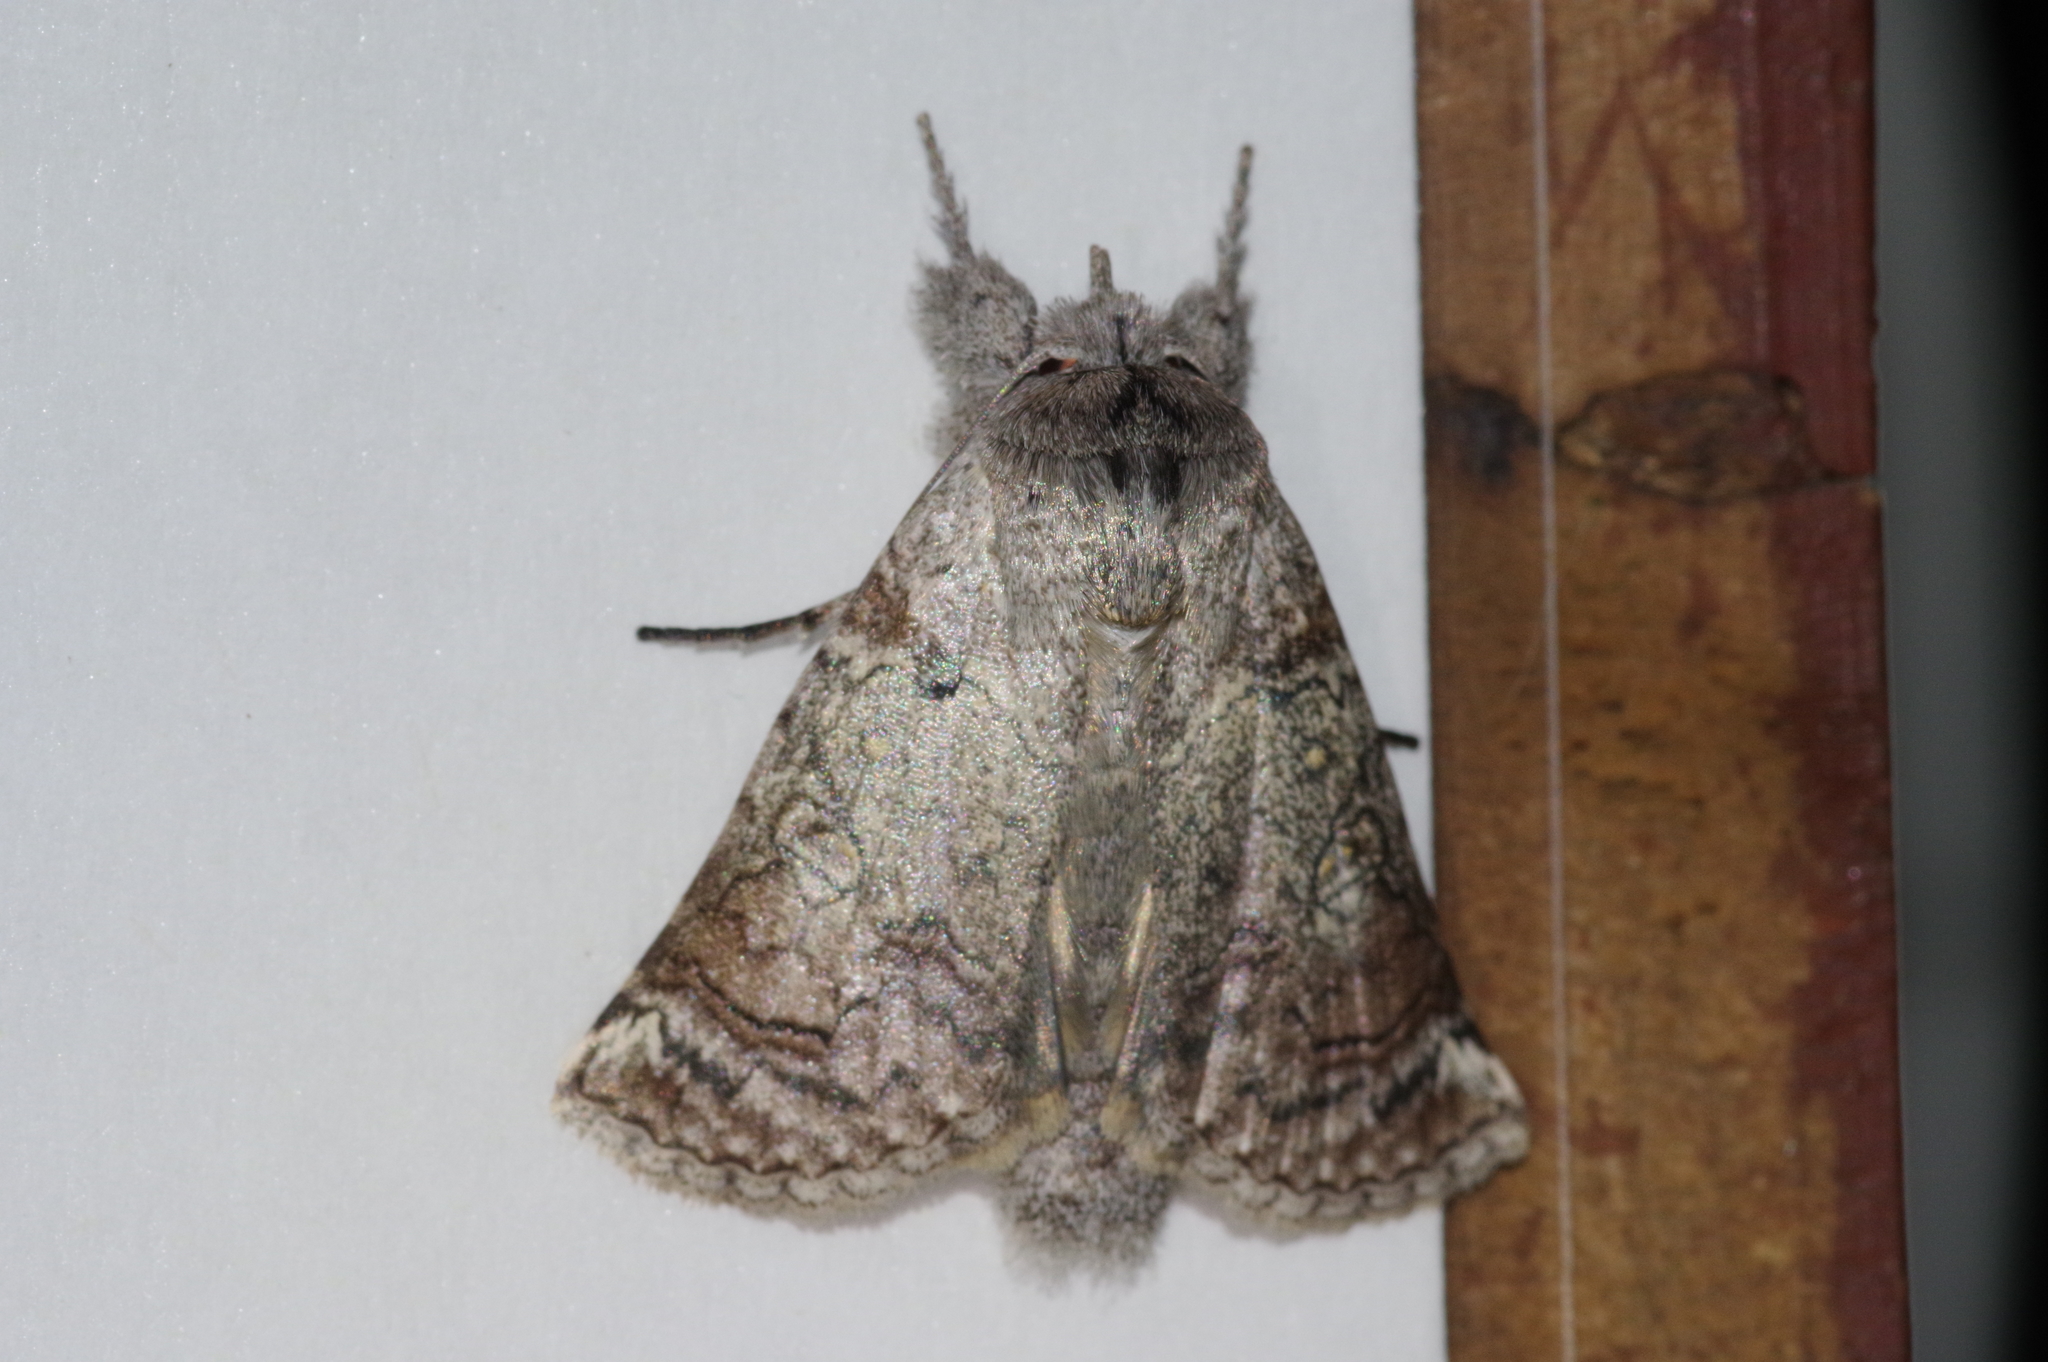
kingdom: Animalia
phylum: Arthropoda
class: Insecta
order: Lepidoptera
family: Nolidae
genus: Macrobarasa
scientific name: Macrobarasa xantholopha
